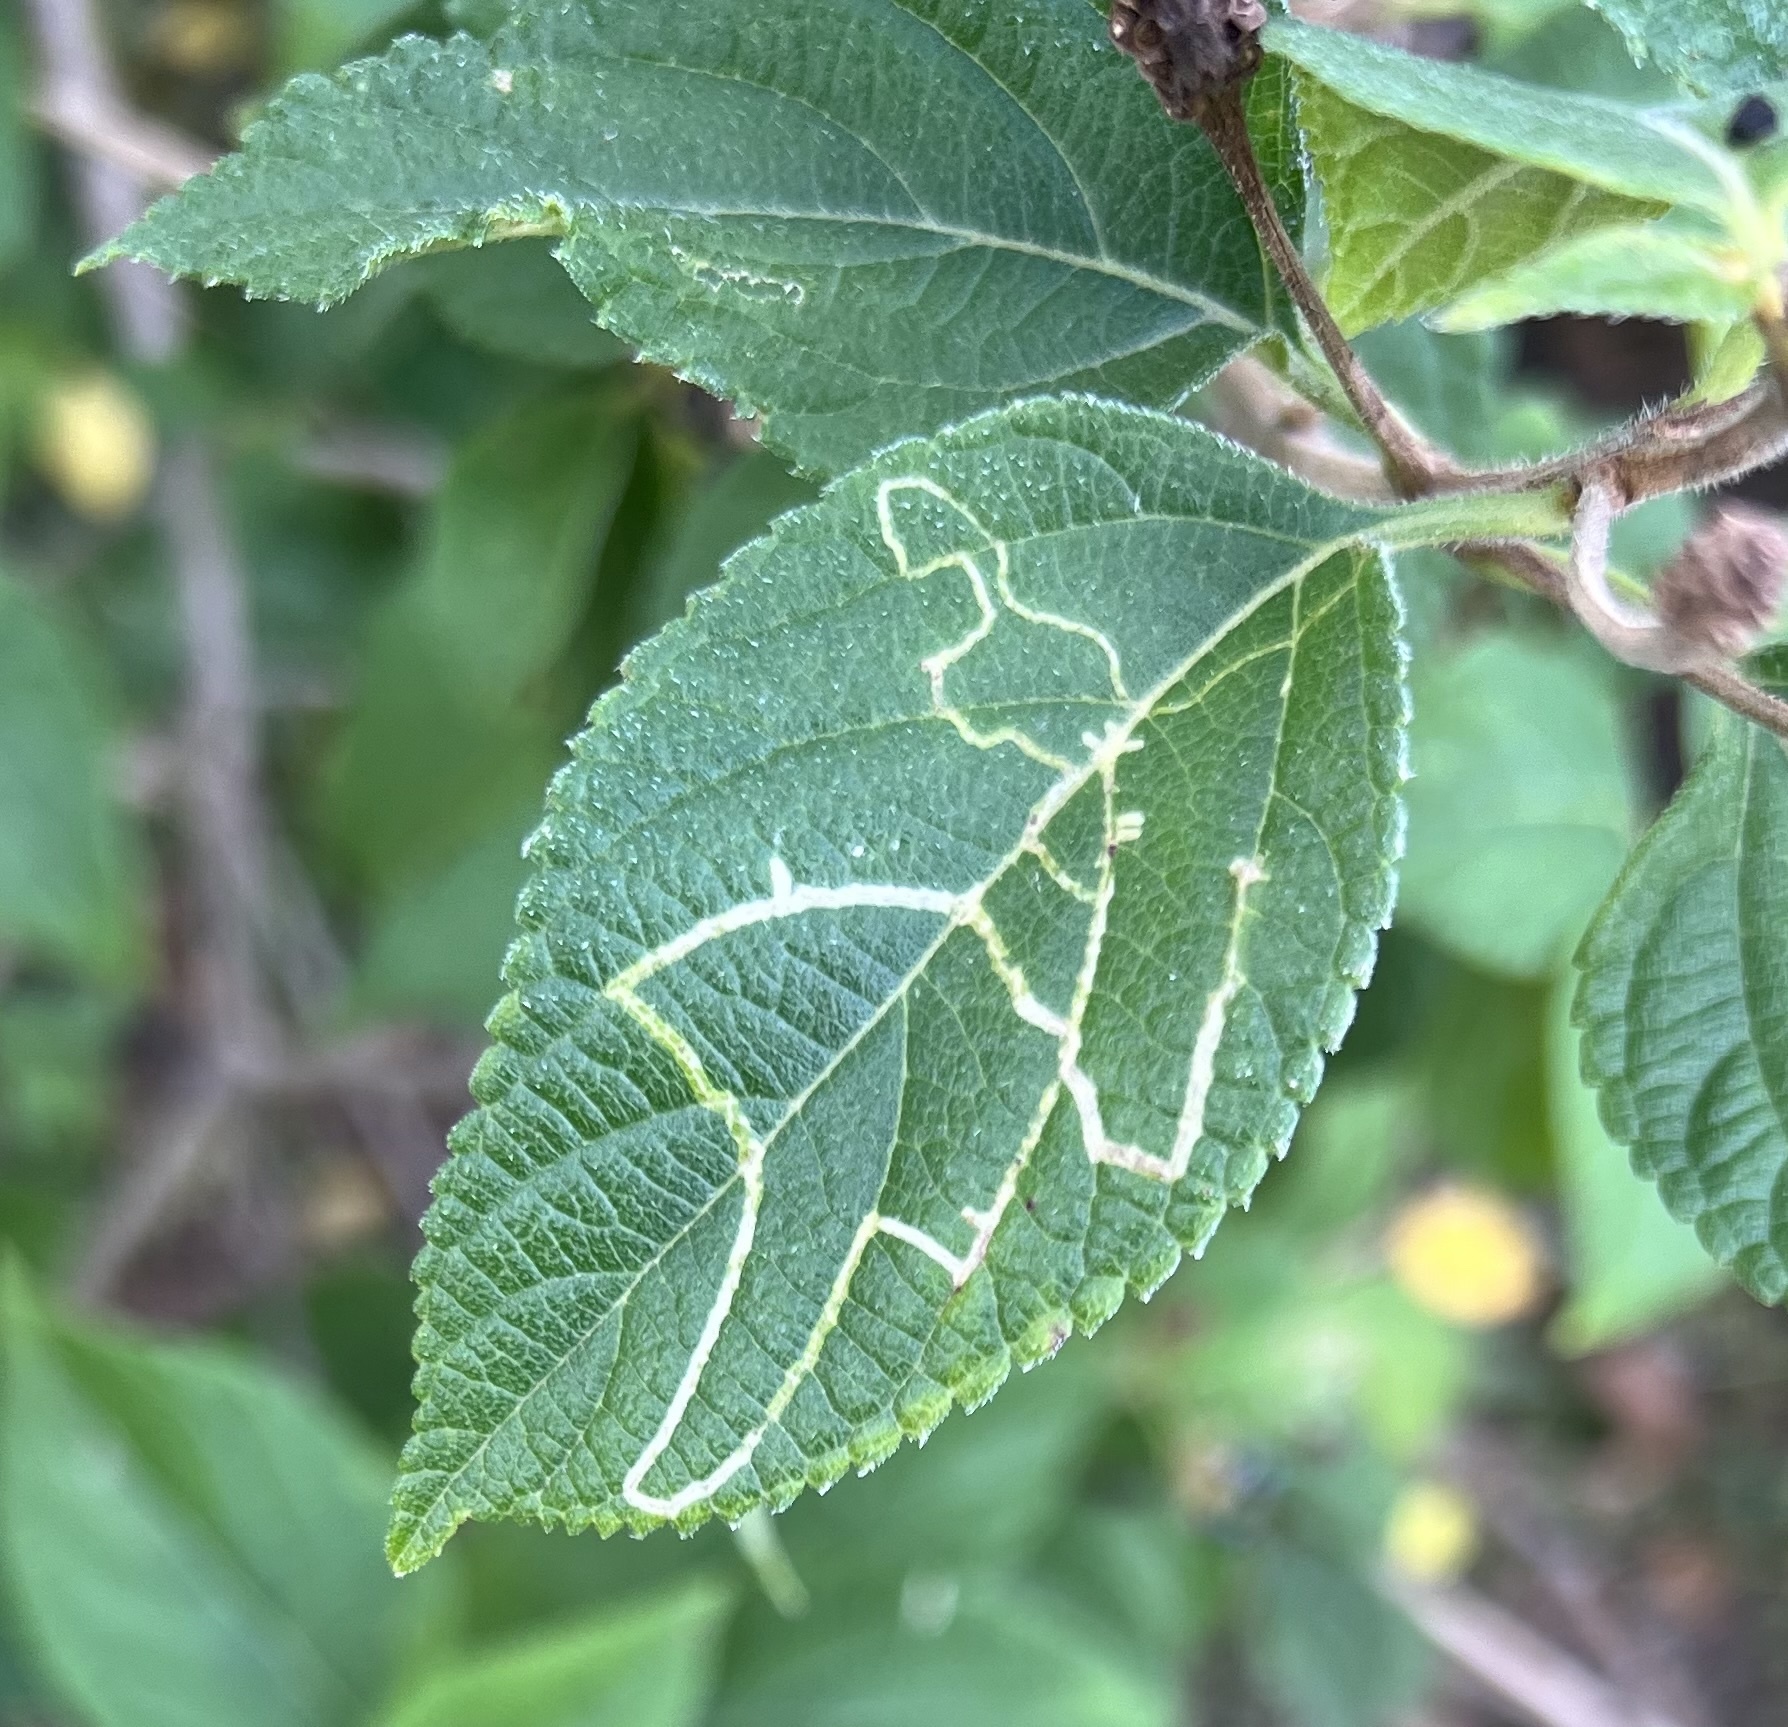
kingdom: Animalia
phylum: Arthropoda
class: Insecta
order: Diptera
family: Agromyzidae
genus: Ophiomyia
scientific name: Ophiomyia camarae
